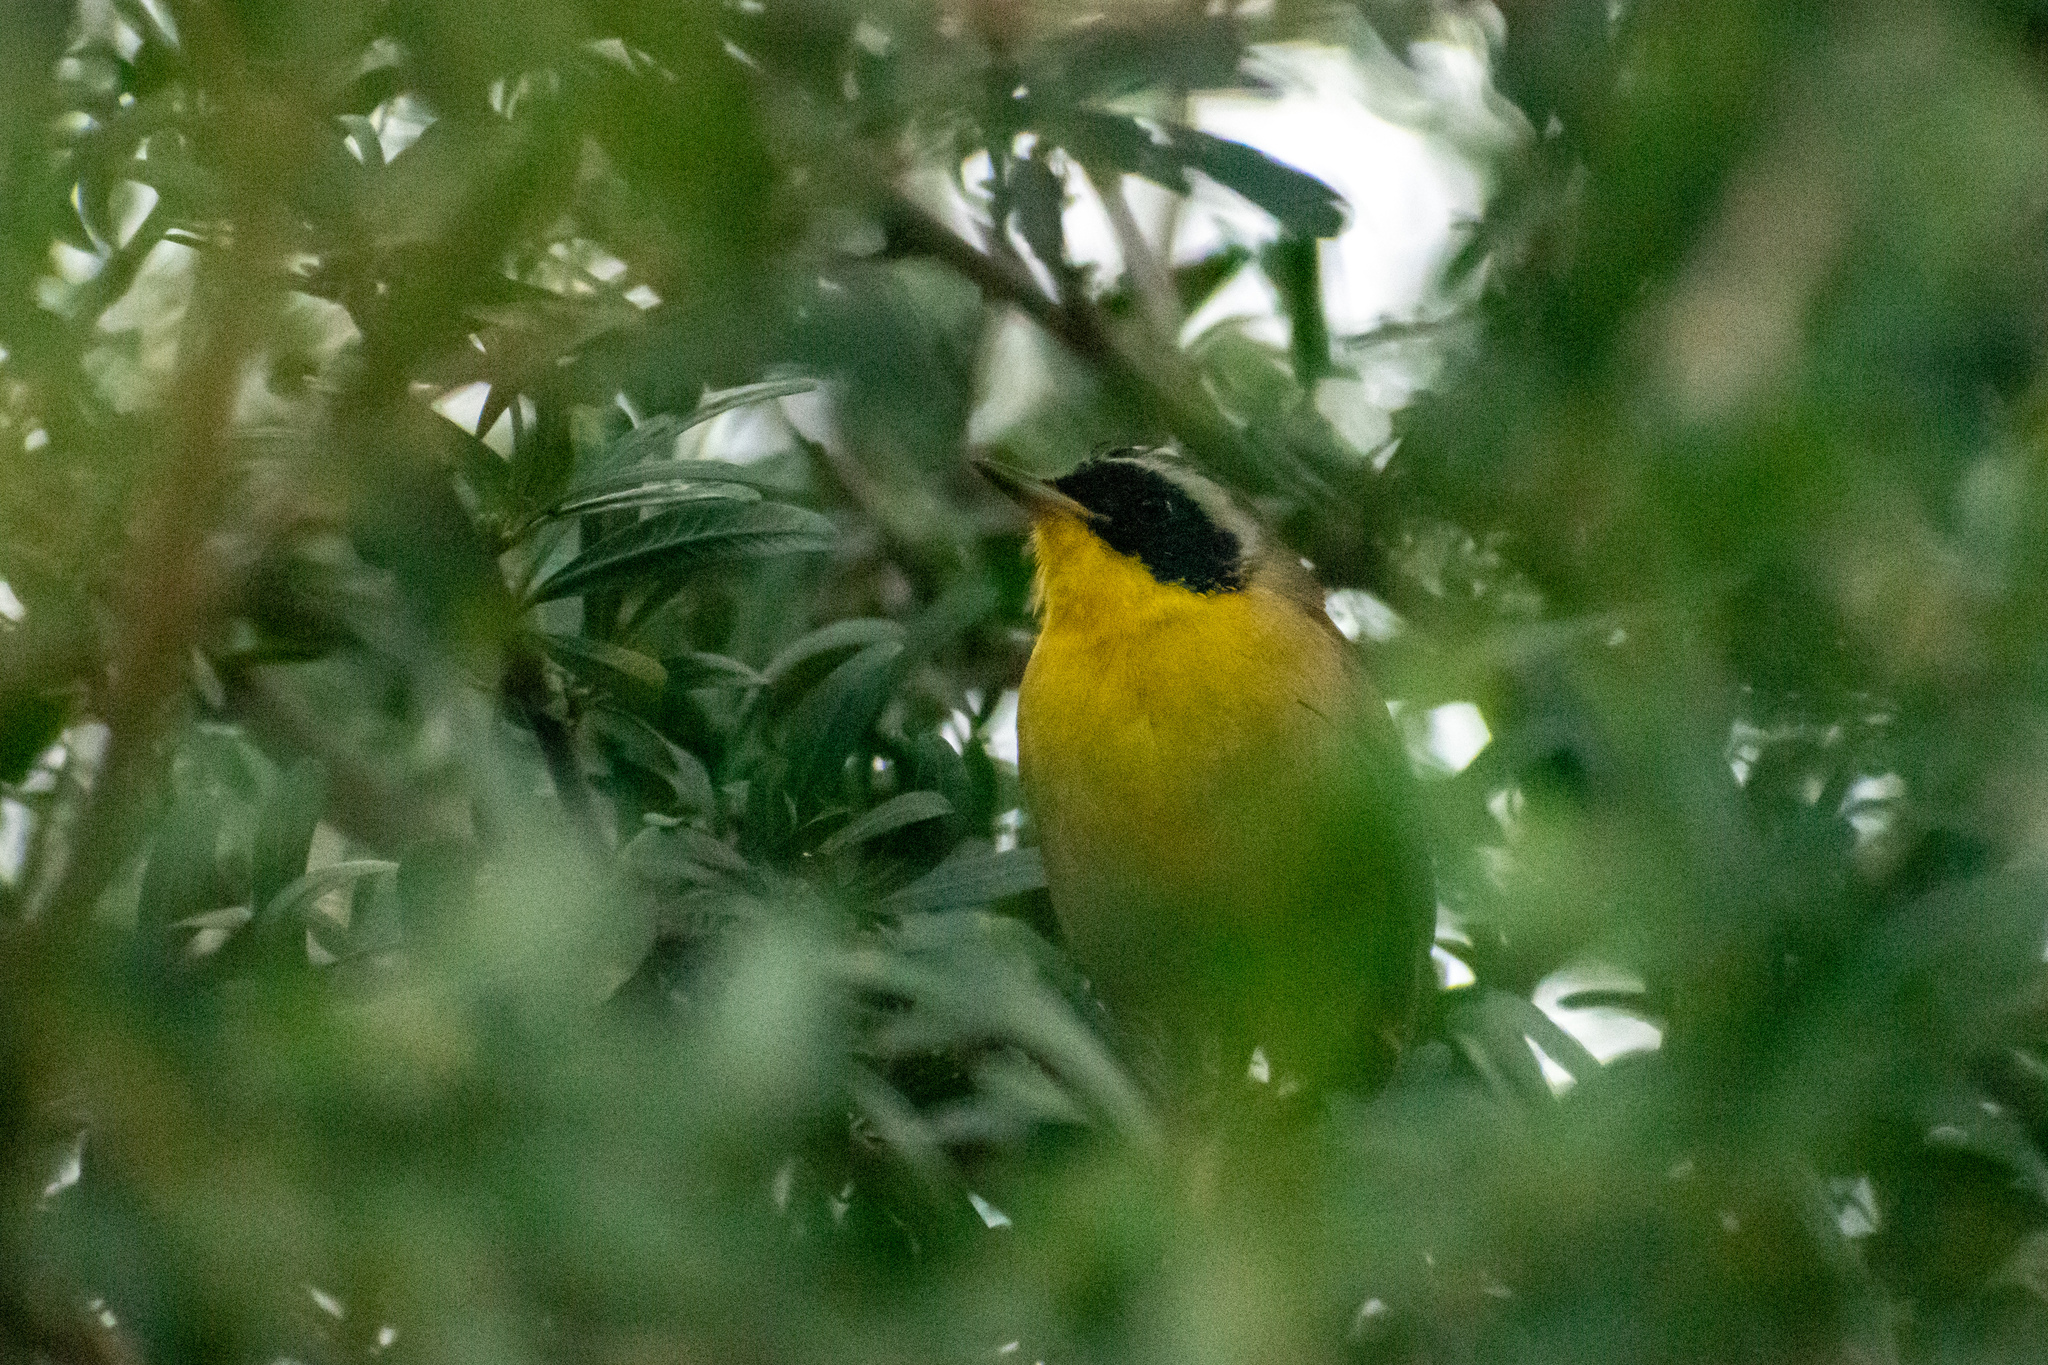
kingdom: Animalia
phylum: Chordata
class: Aves
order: Passeriformes
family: Parulidae
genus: Geothlypis
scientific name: Geothlypis trichas
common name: Common yellowthroat
